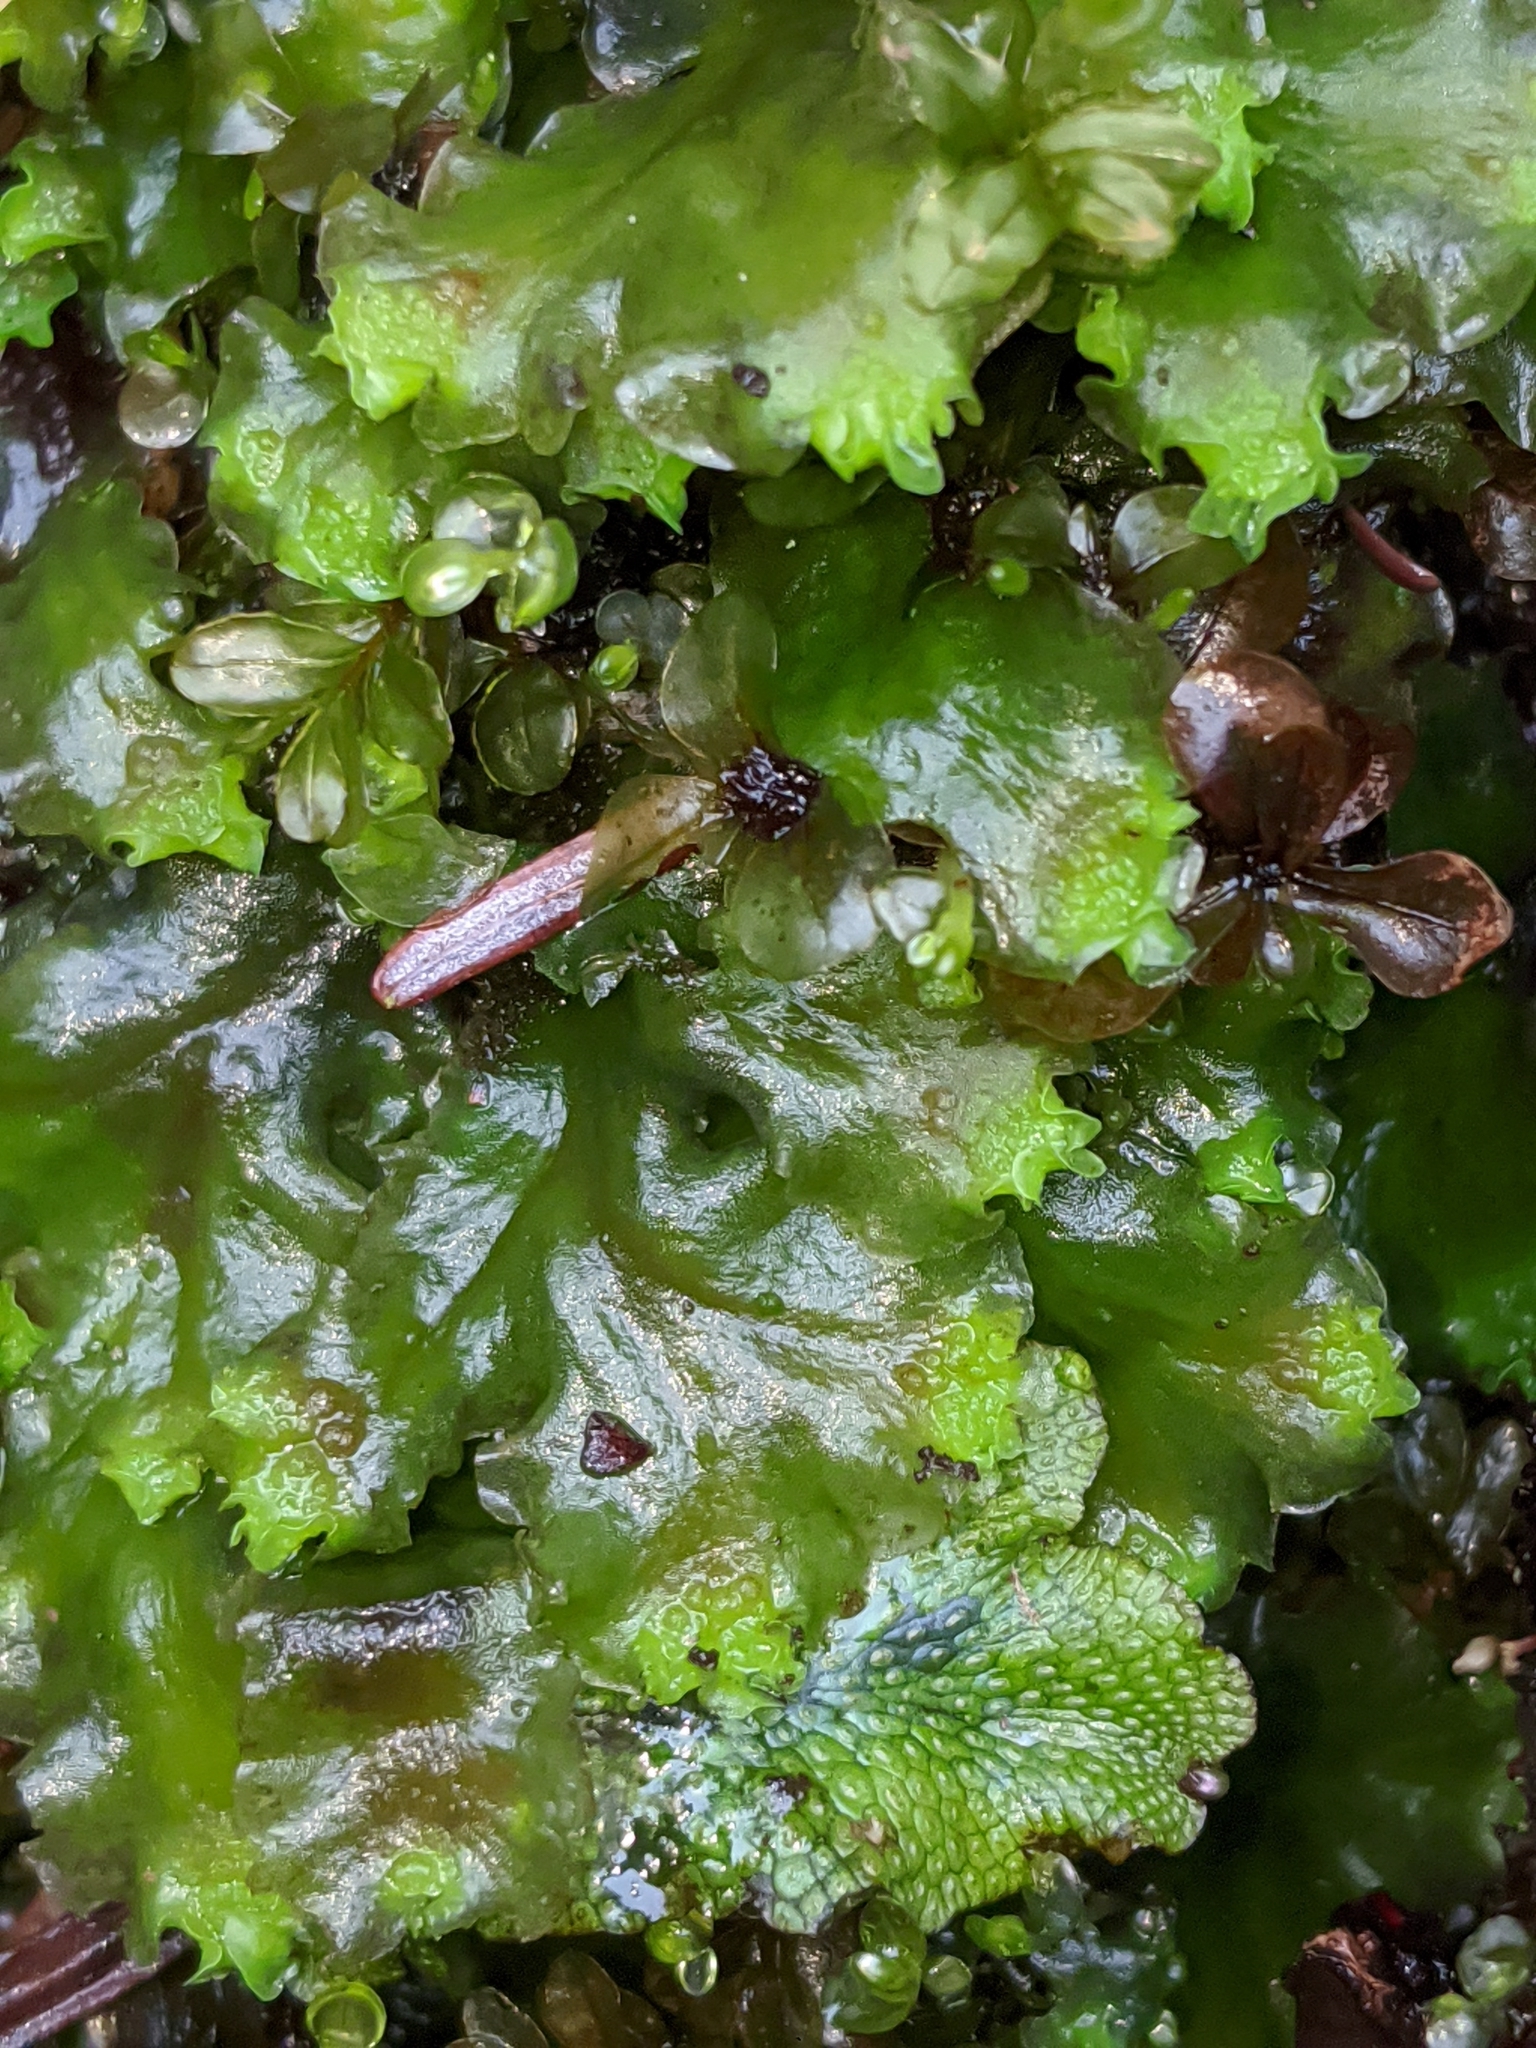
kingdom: Plantae
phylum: Marchantiophyta
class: Jungermanniopsida
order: Pelliales
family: Pelliaceae
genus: Pellia
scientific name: Pellia neesiana
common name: Nees  pellia
